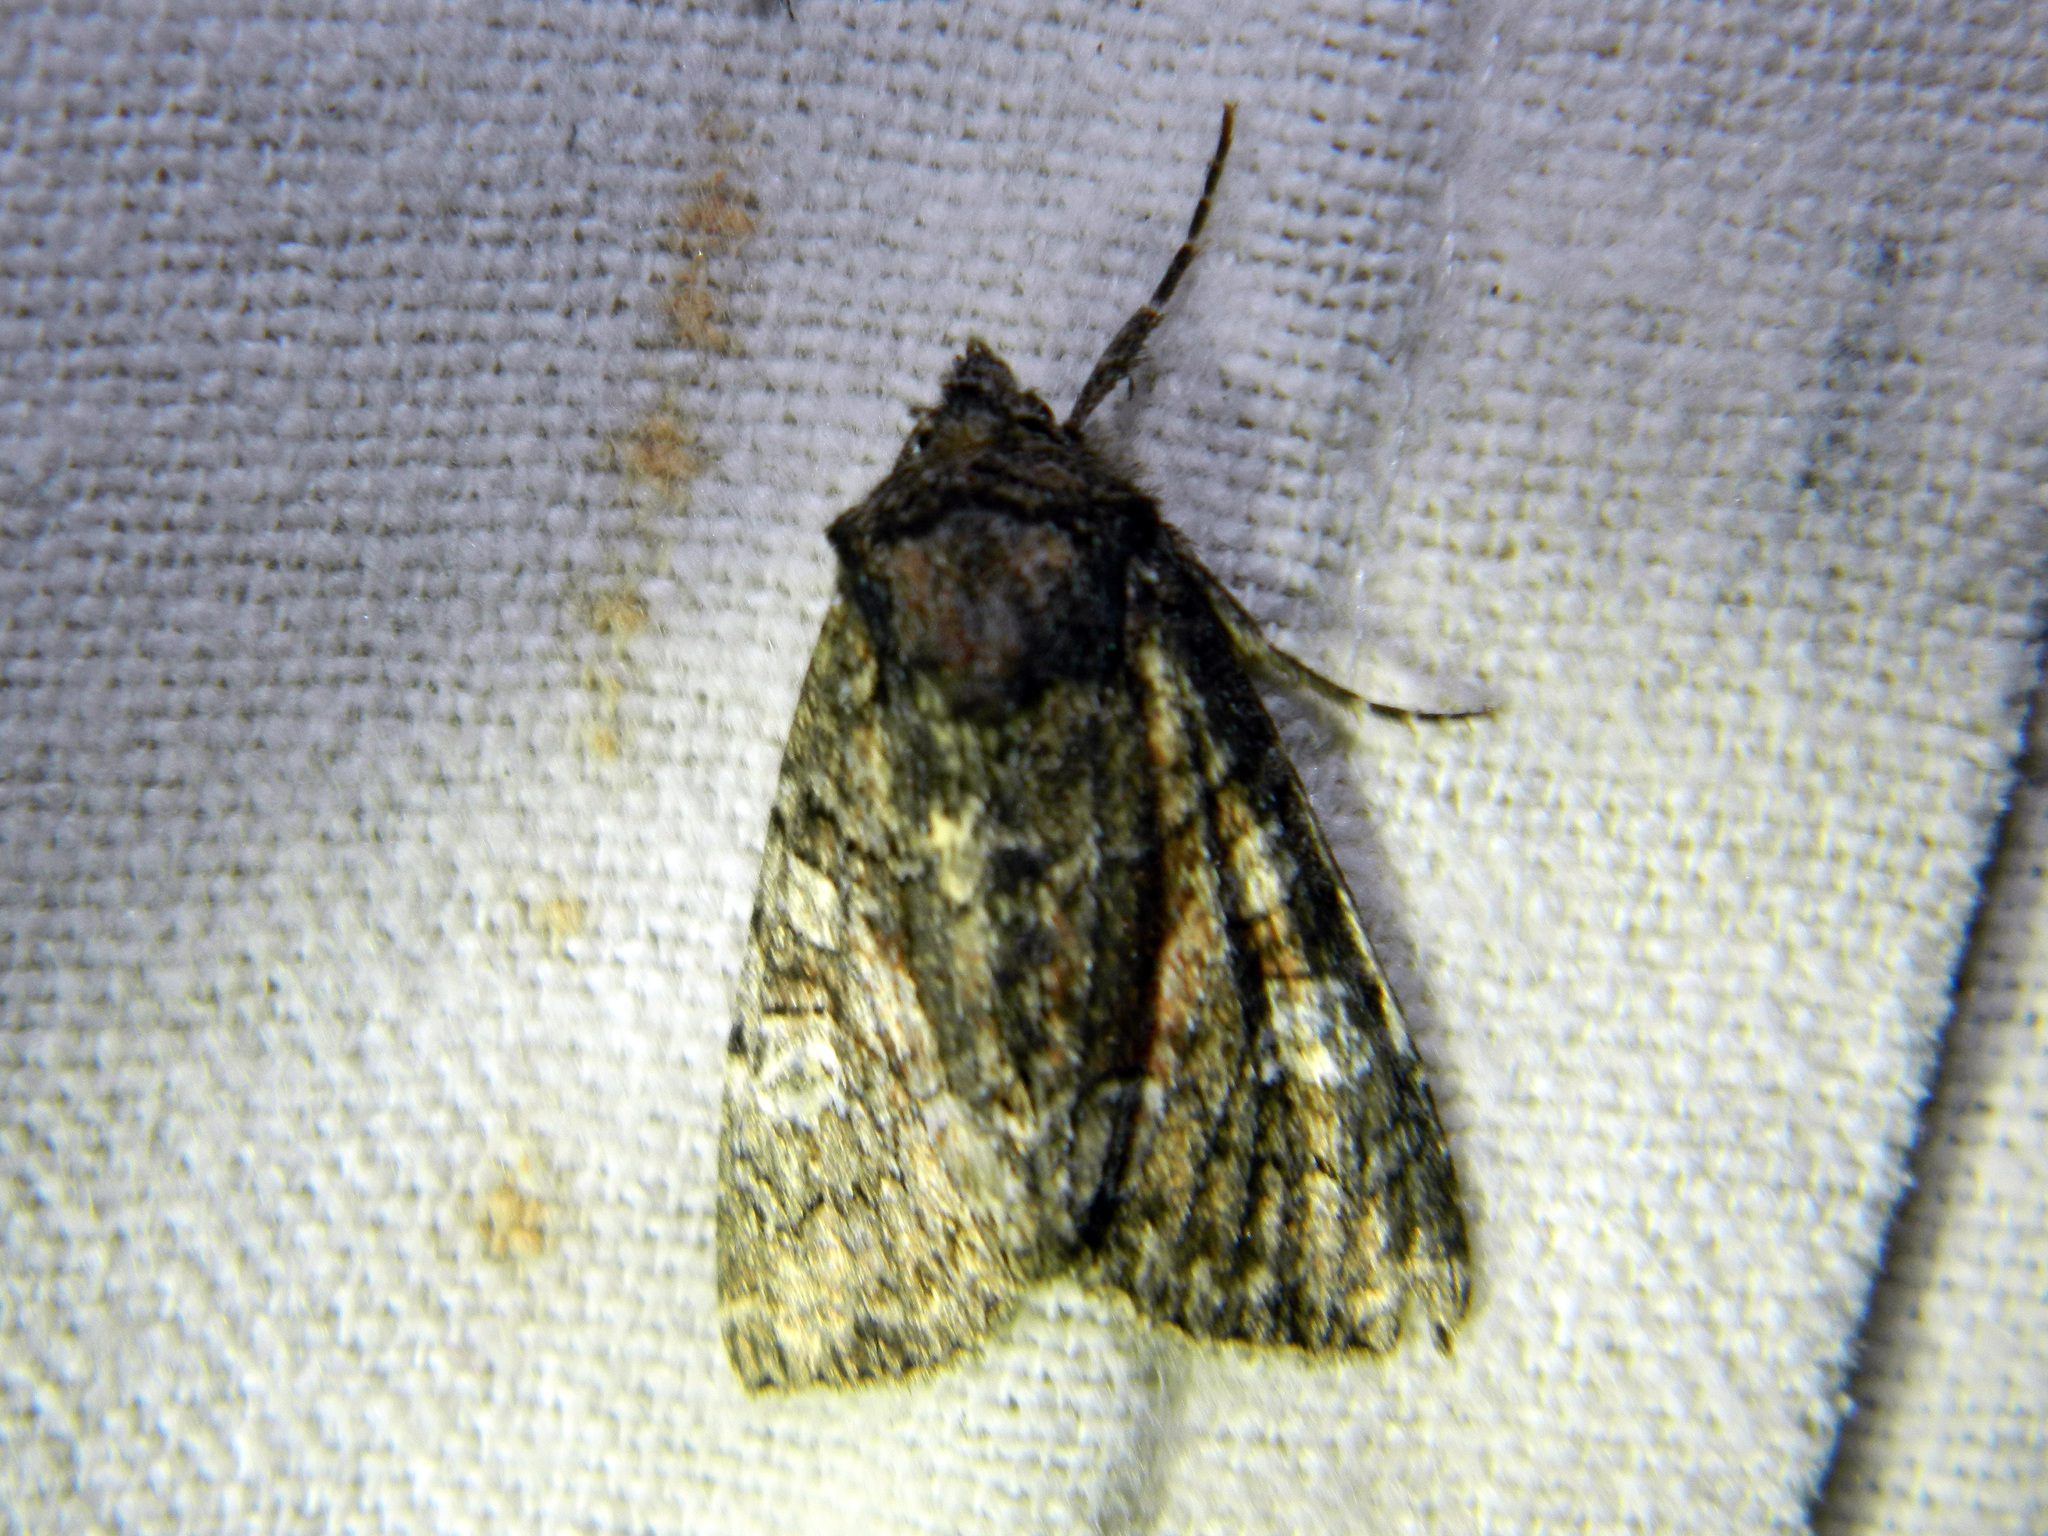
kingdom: Animalia
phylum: Arthropoda
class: Insecta
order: Lepidoptera
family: Noctuidae
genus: Fishia
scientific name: Fishia illocata
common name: Wandering brocade moth
